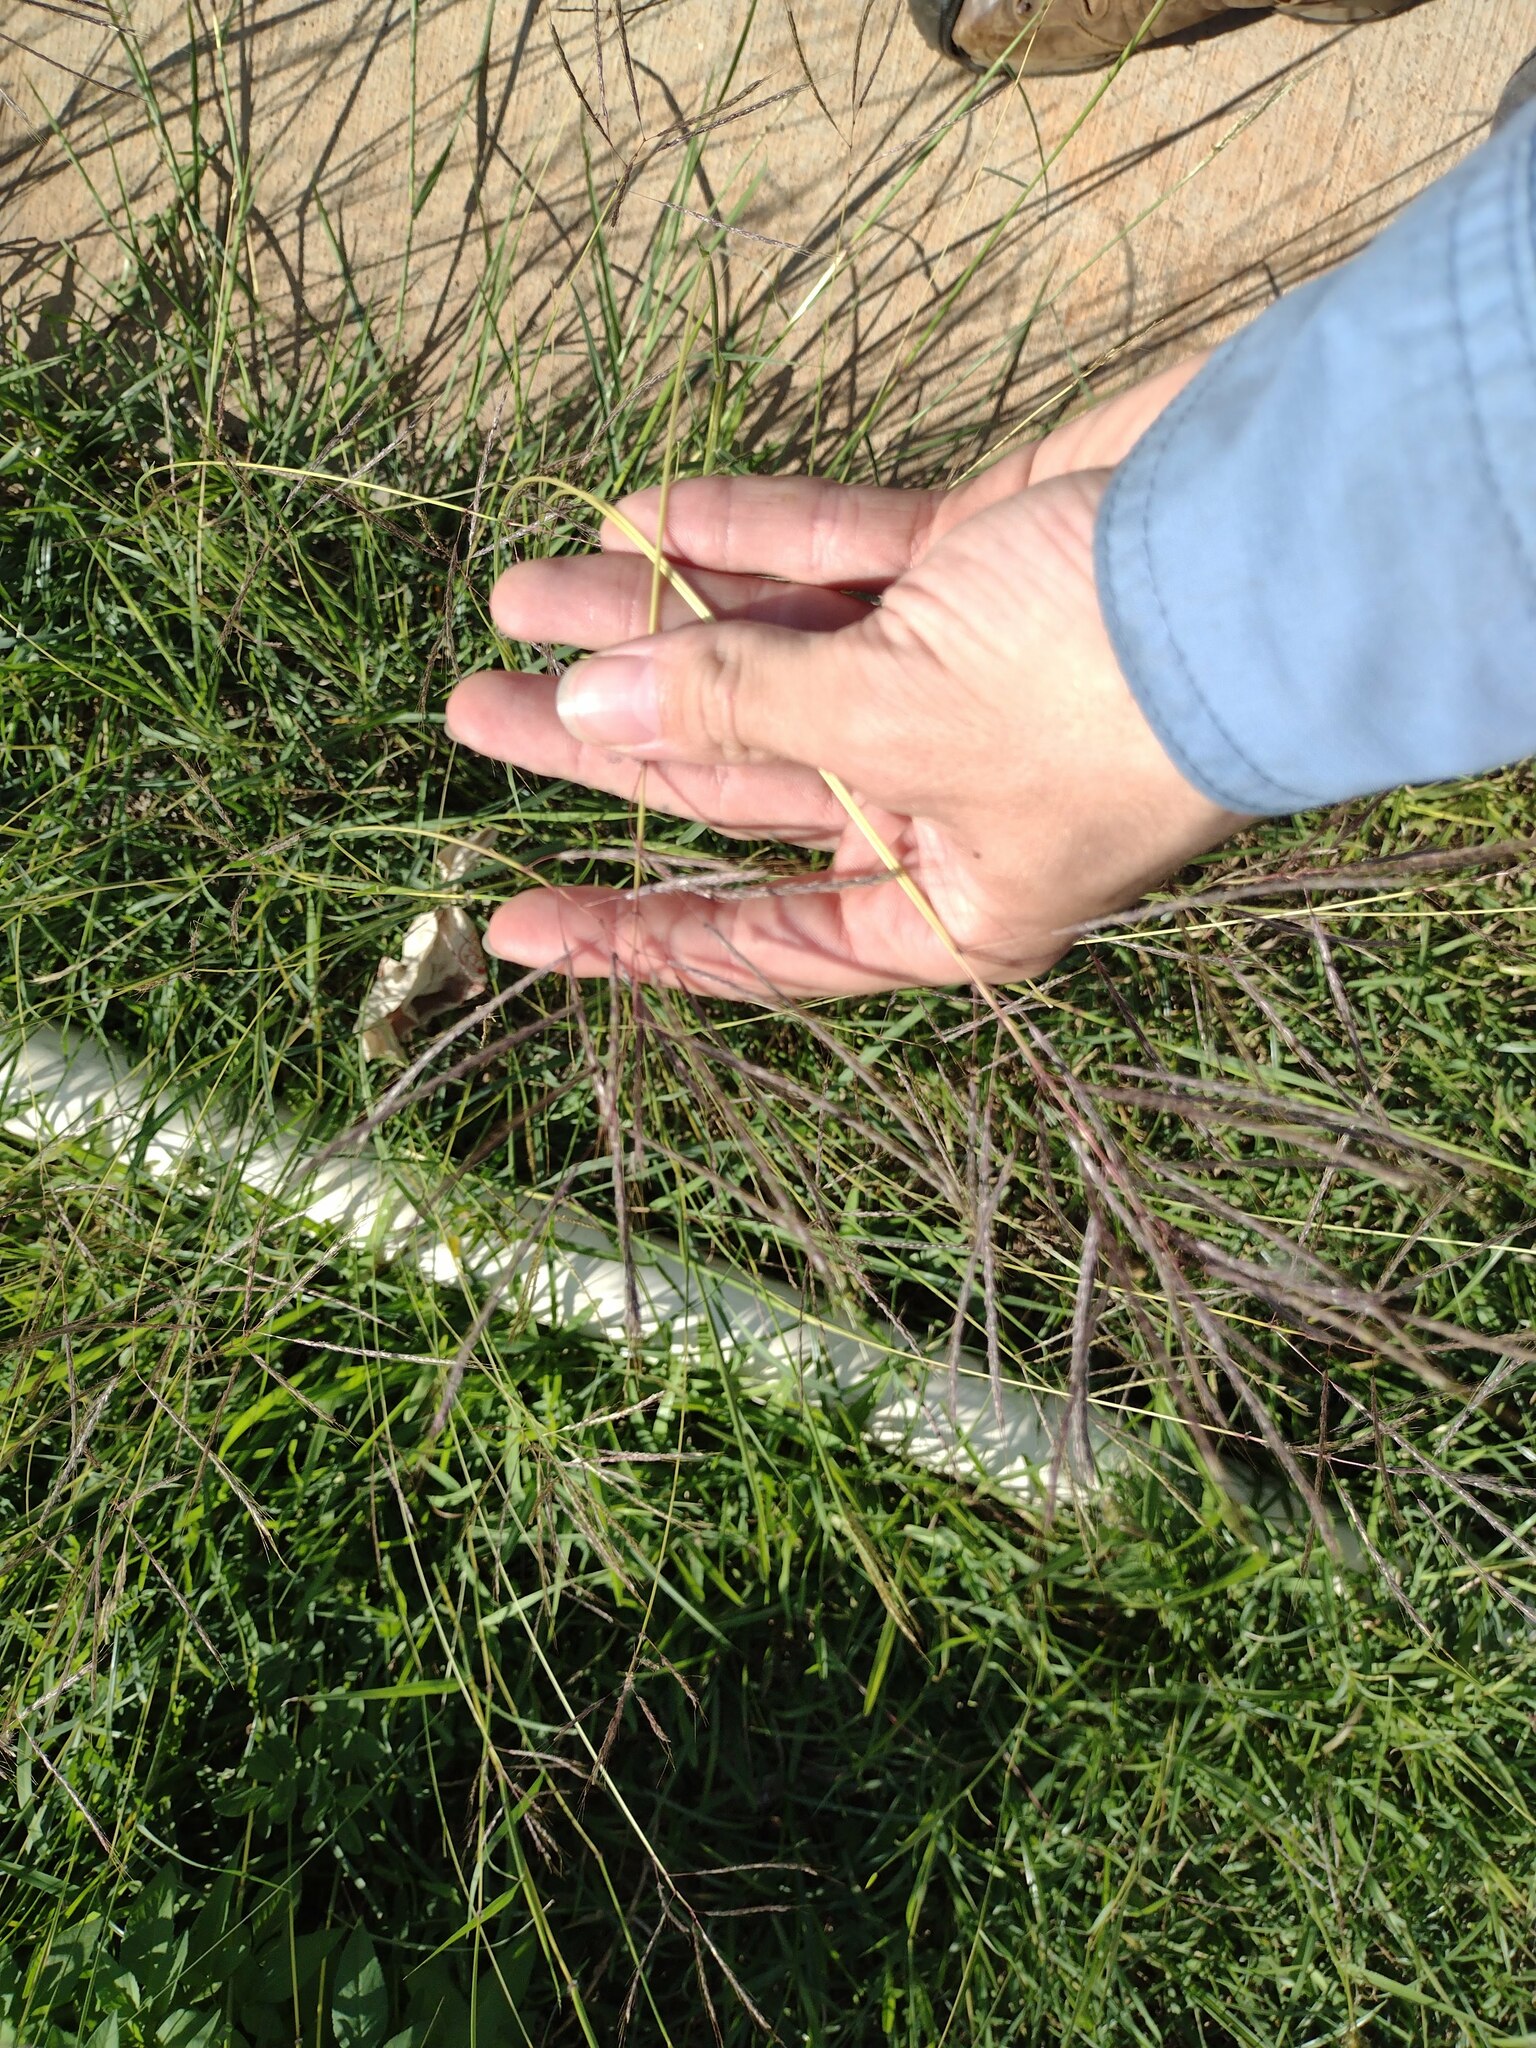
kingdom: Plantae
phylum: Tracheophyta
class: Liliopsida
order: Poales
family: Poaceae
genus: Dichanthium
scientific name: Dichanthium annulatum
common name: Kleberg's bluestem
